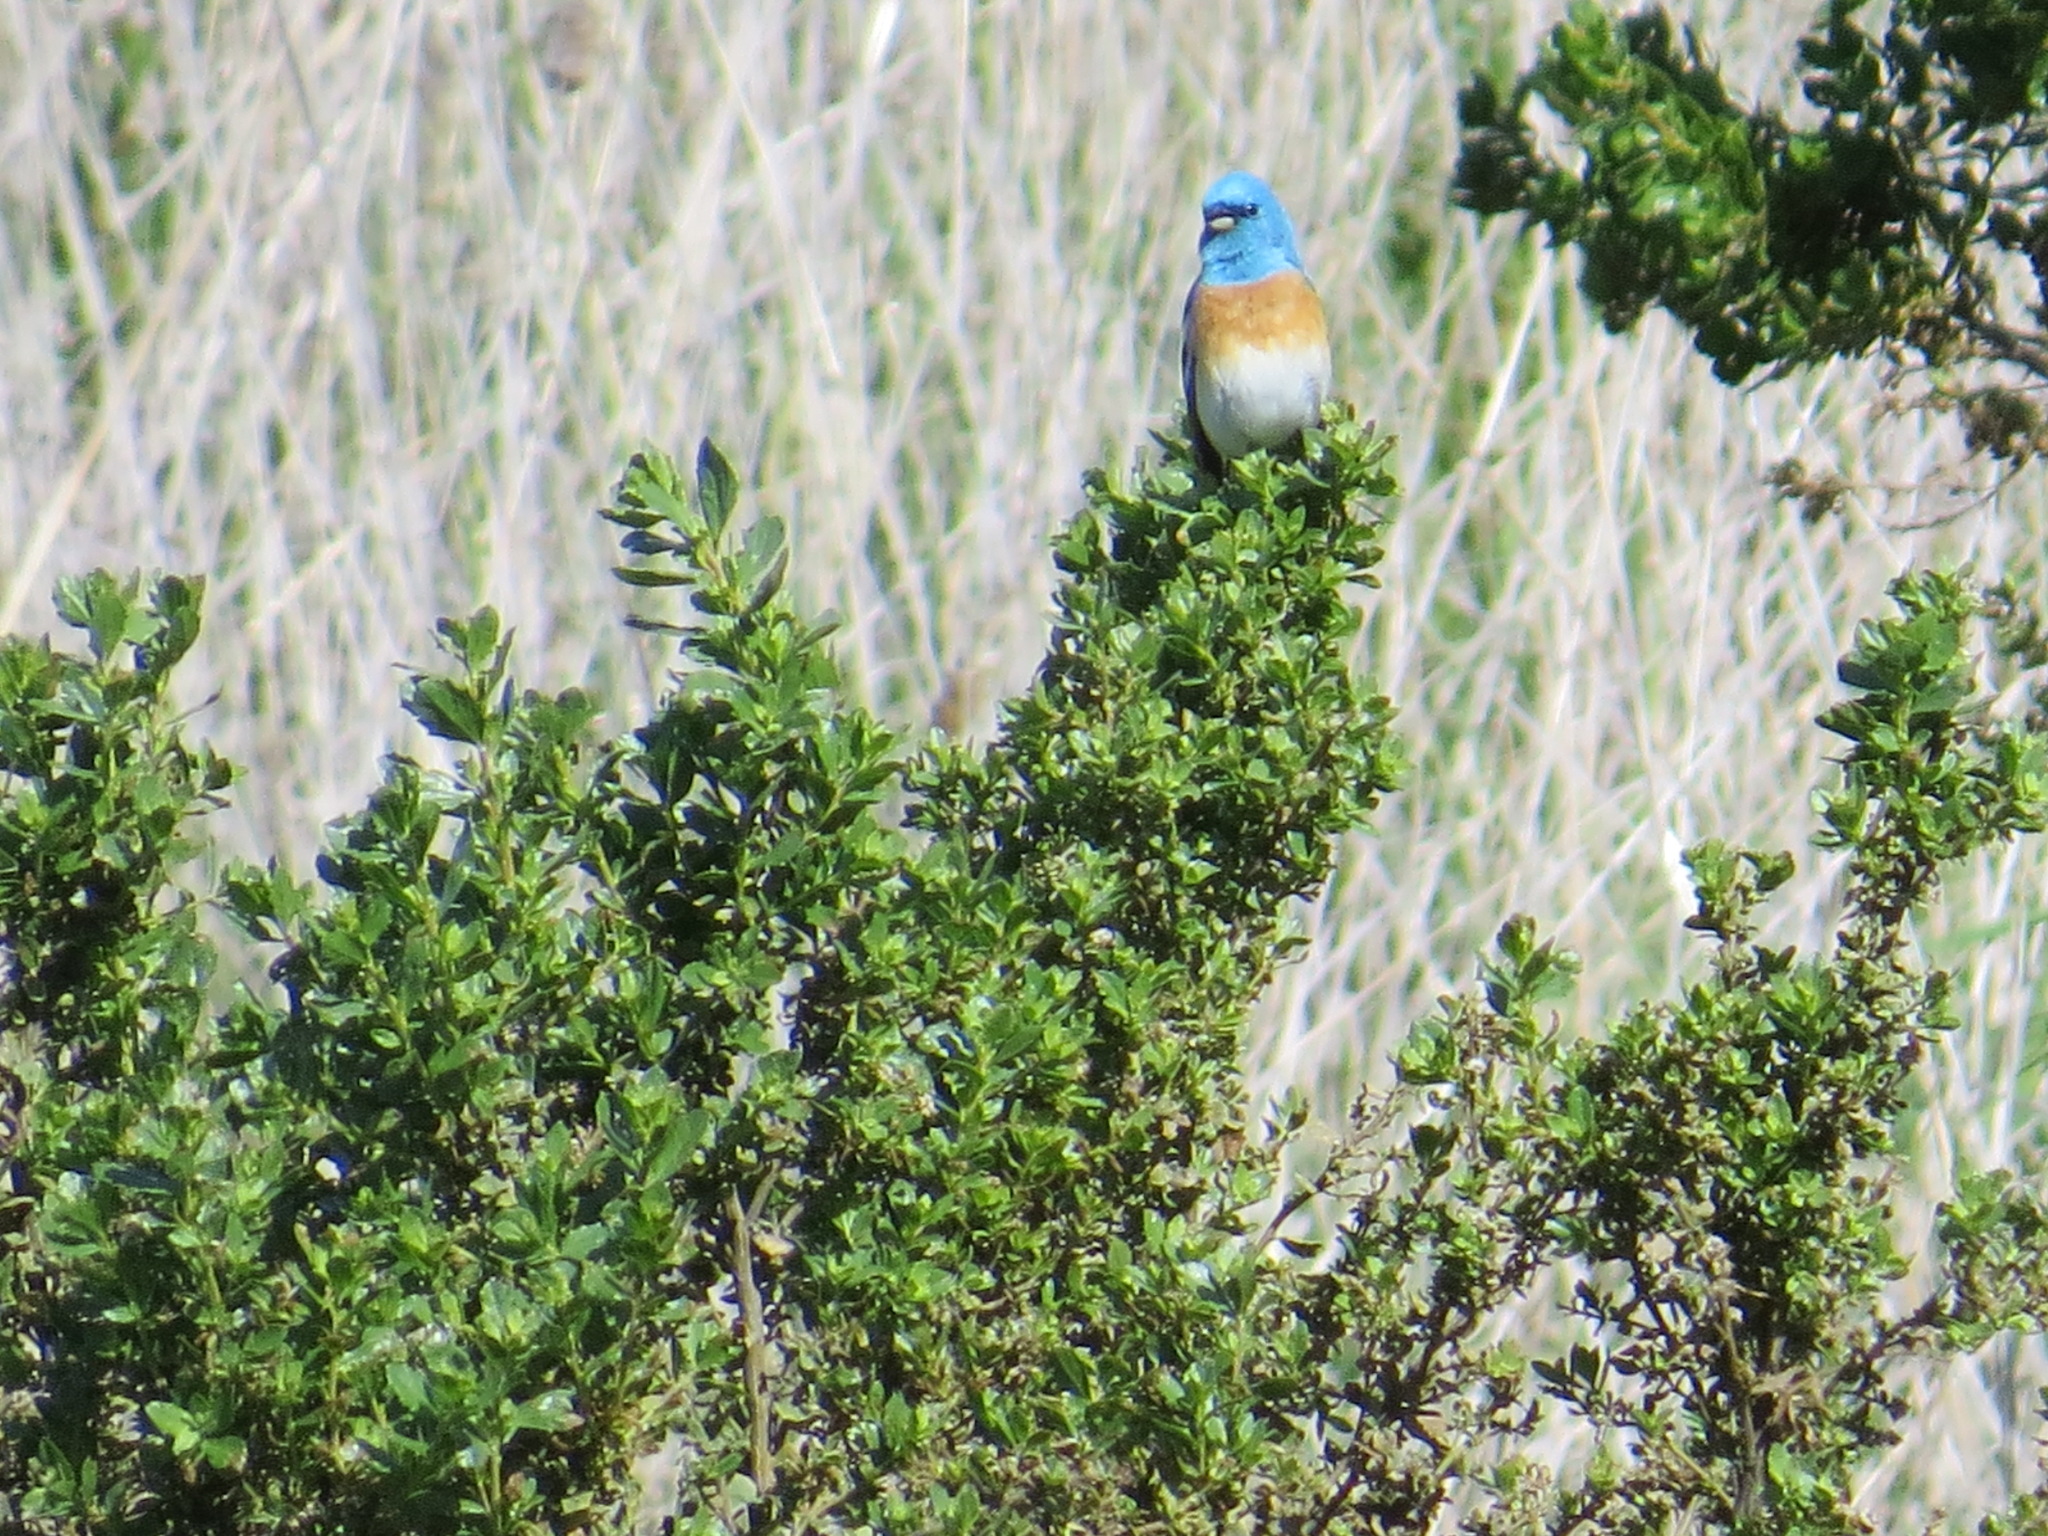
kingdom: Animalia
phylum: Chordata
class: Aves
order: Passeriformes
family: Cardinalidae
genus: Passerina
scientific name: Passerina amoena
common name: Lazuli bunting
